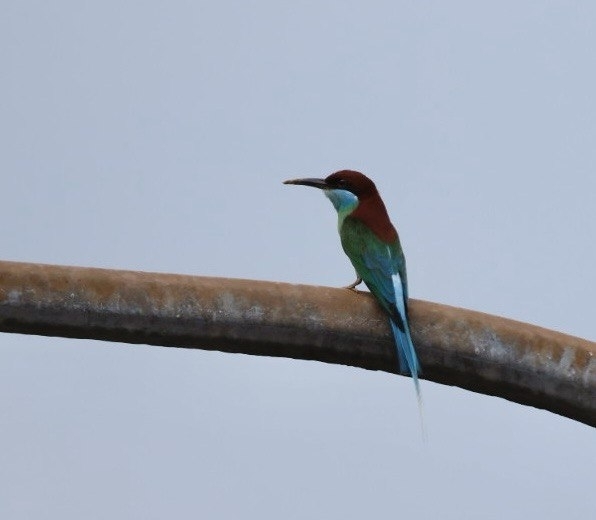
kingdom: Animalia
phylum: Chordata
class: Aves
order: Coraciiformes
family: Meropidae
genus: Merops
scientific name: Merops viridis
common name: Blue-throated bee-eater
